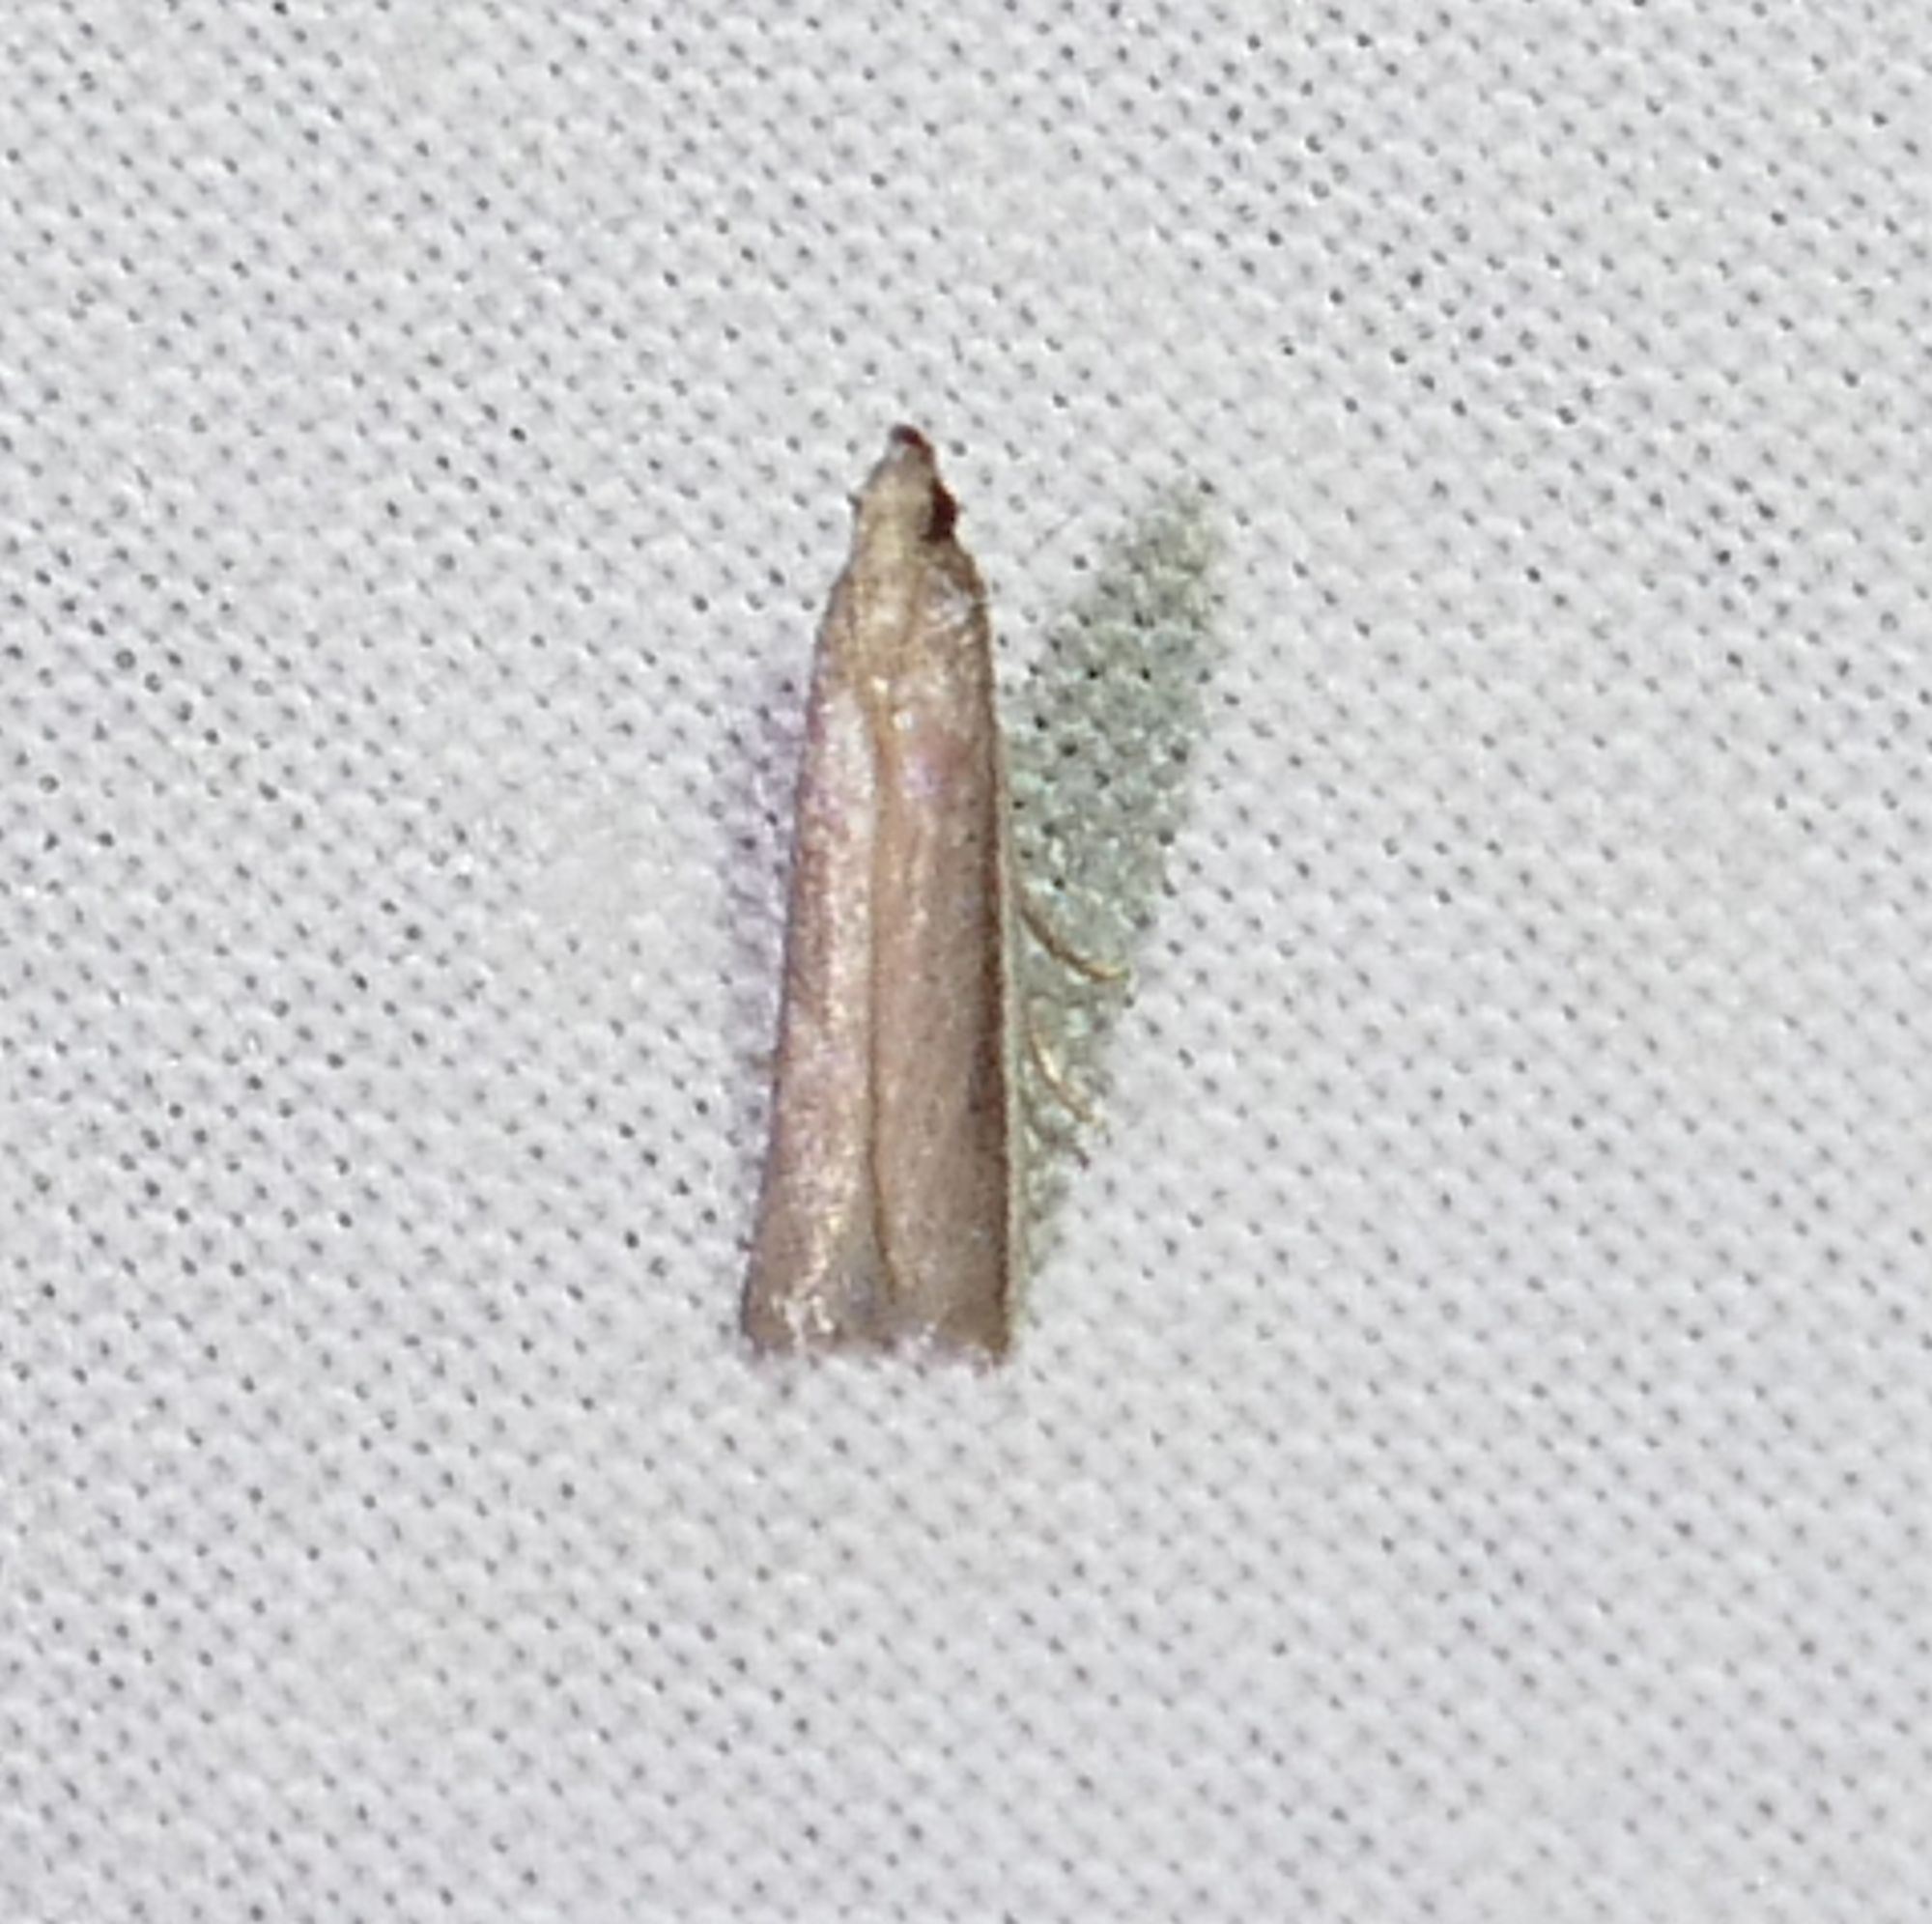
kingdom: Animalia
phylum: Arthropoda
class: Insecta
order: Lepidoptera
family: Pyralidae
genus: Tampa
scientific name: Tampa dimediatella
